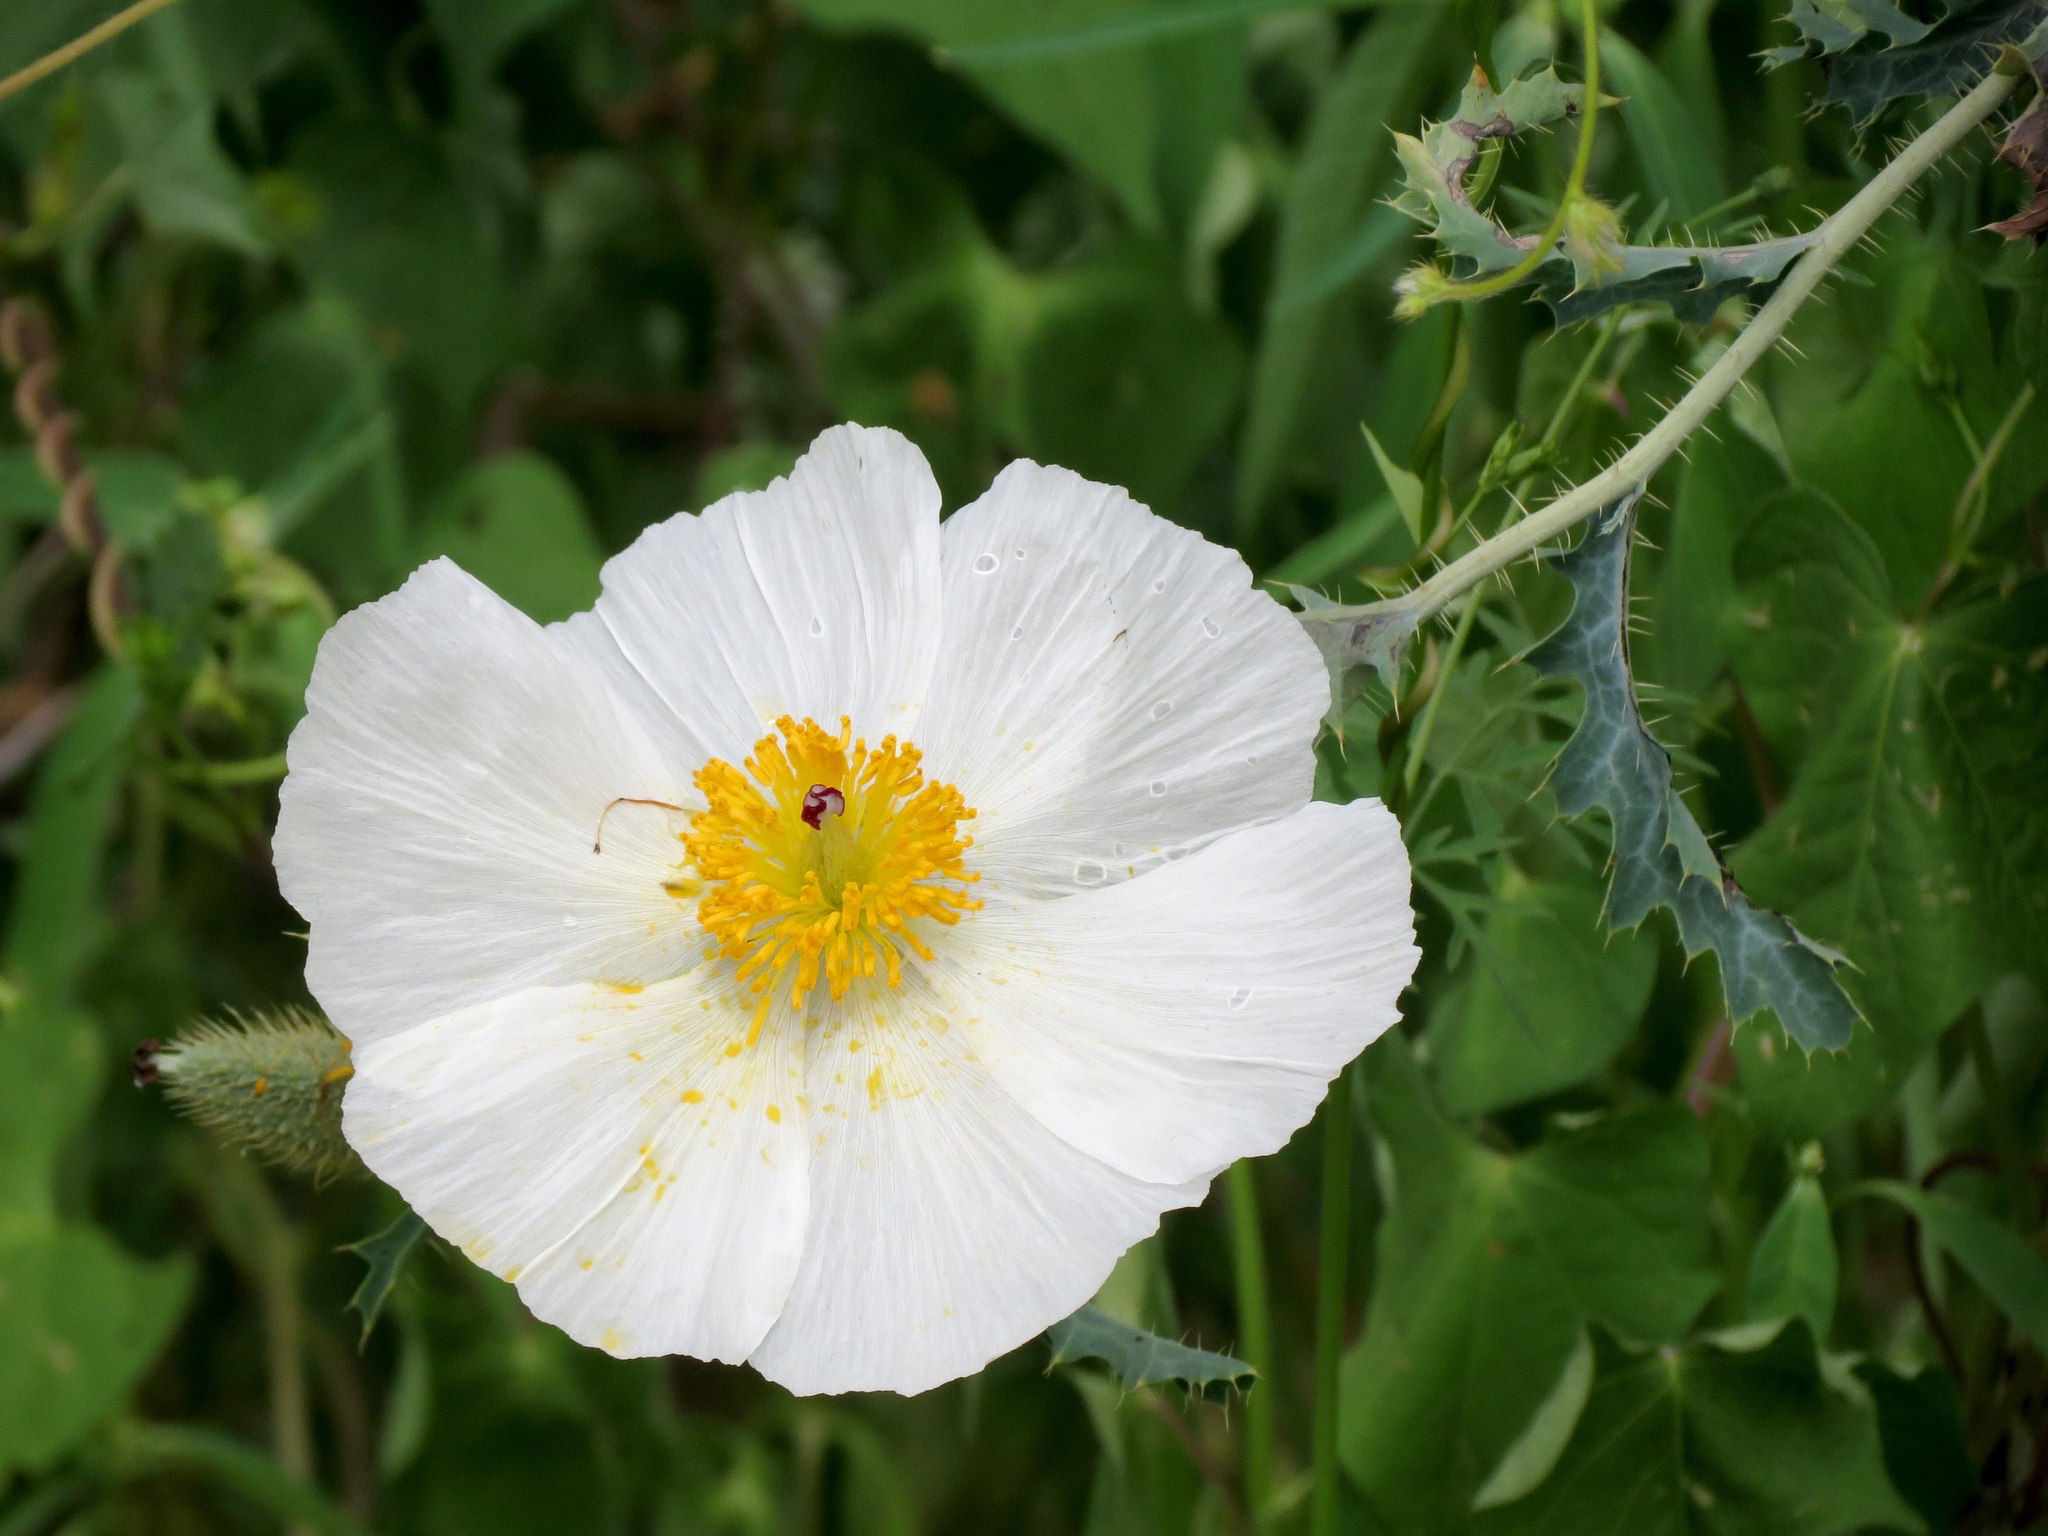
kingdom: Plantae
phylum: Tracheophyta
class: Magnoliopsida
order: Ranunculales
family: Papaveraceae
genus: Argemone
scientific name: Argemone pleiacantha
